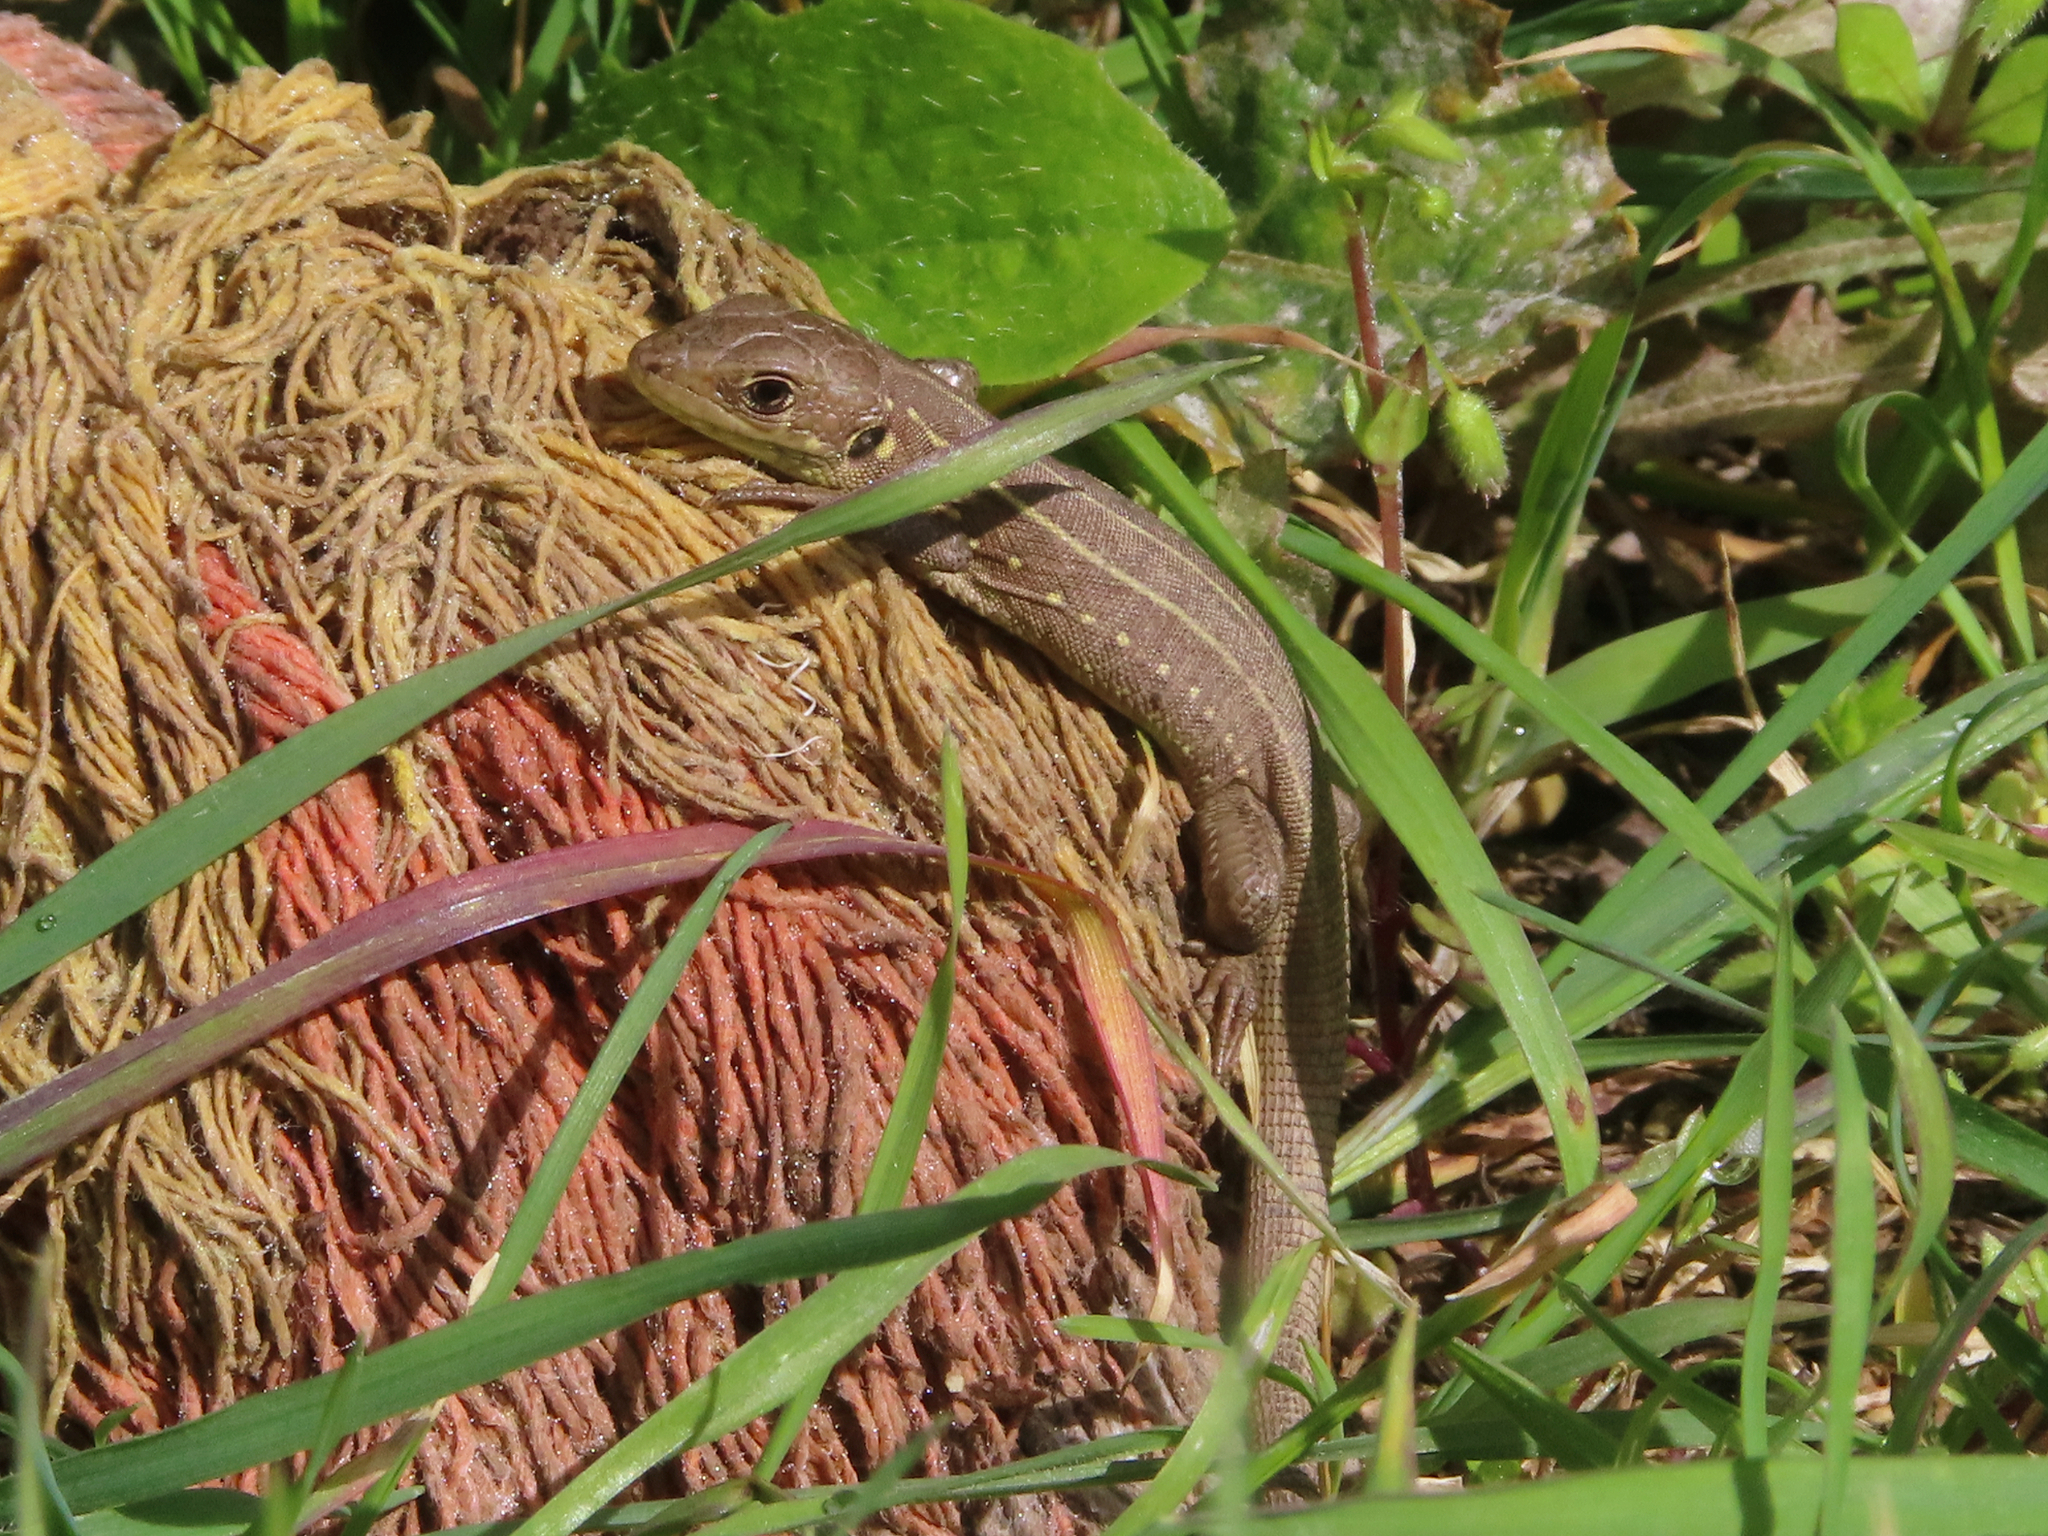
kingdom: Animalia
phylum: Chordata
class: Squamata
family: Lacertidae
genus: Lacerta
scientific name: Lacerta trilineata
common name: Balkan green lizard
